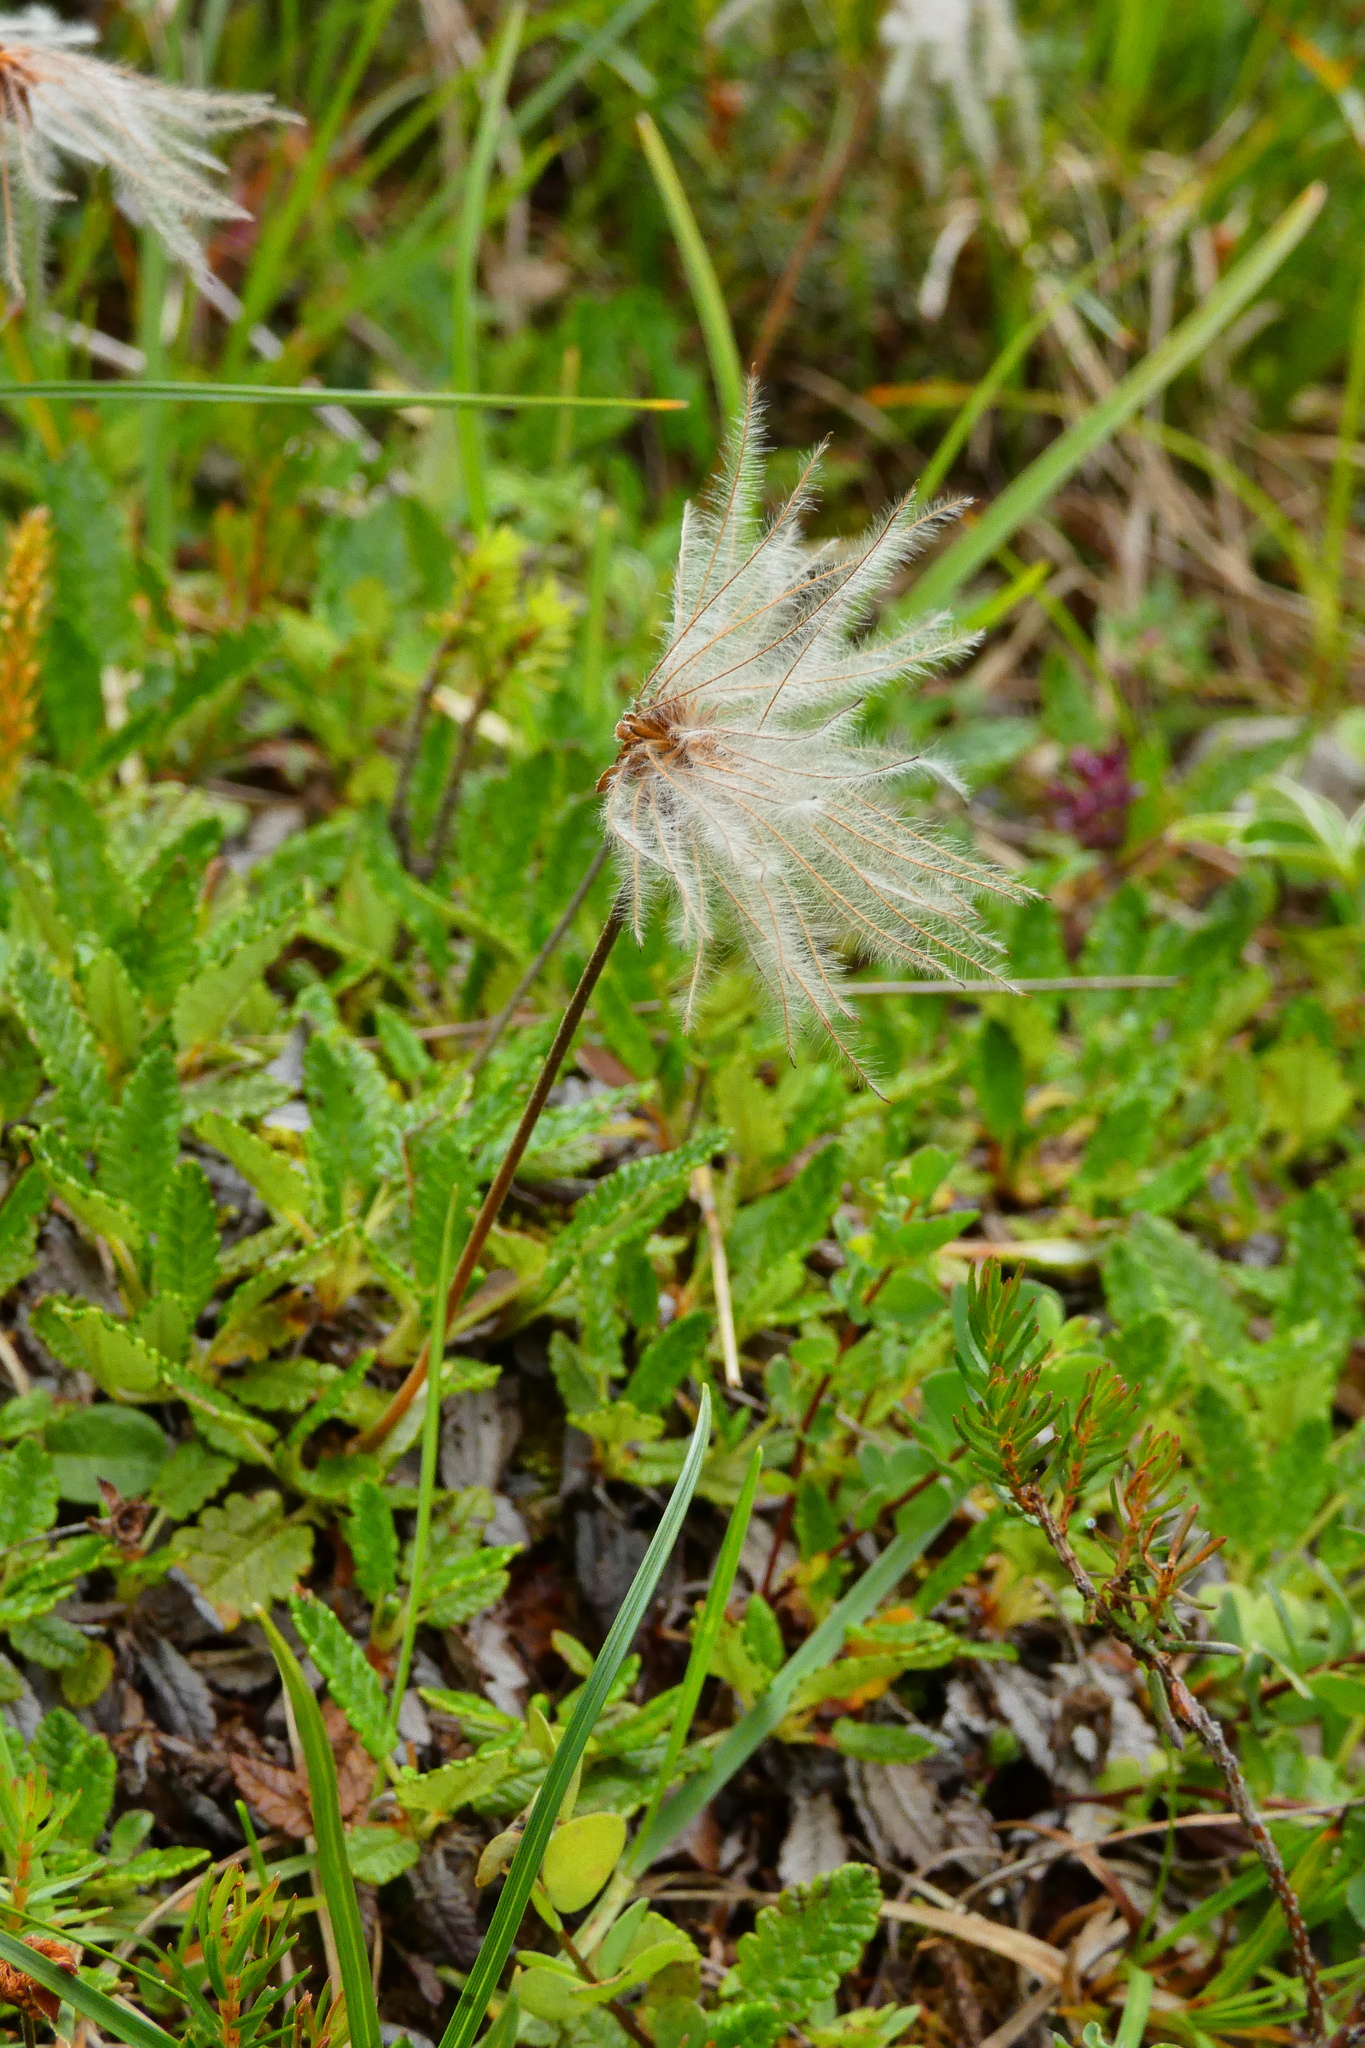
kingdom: Plantae
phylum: Tracheophyta
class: Magnoliopsida
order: Rosales
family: Rosaceae
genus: Dryas
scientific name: Dryas octopetala
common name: Eight-petal mountain-avens
